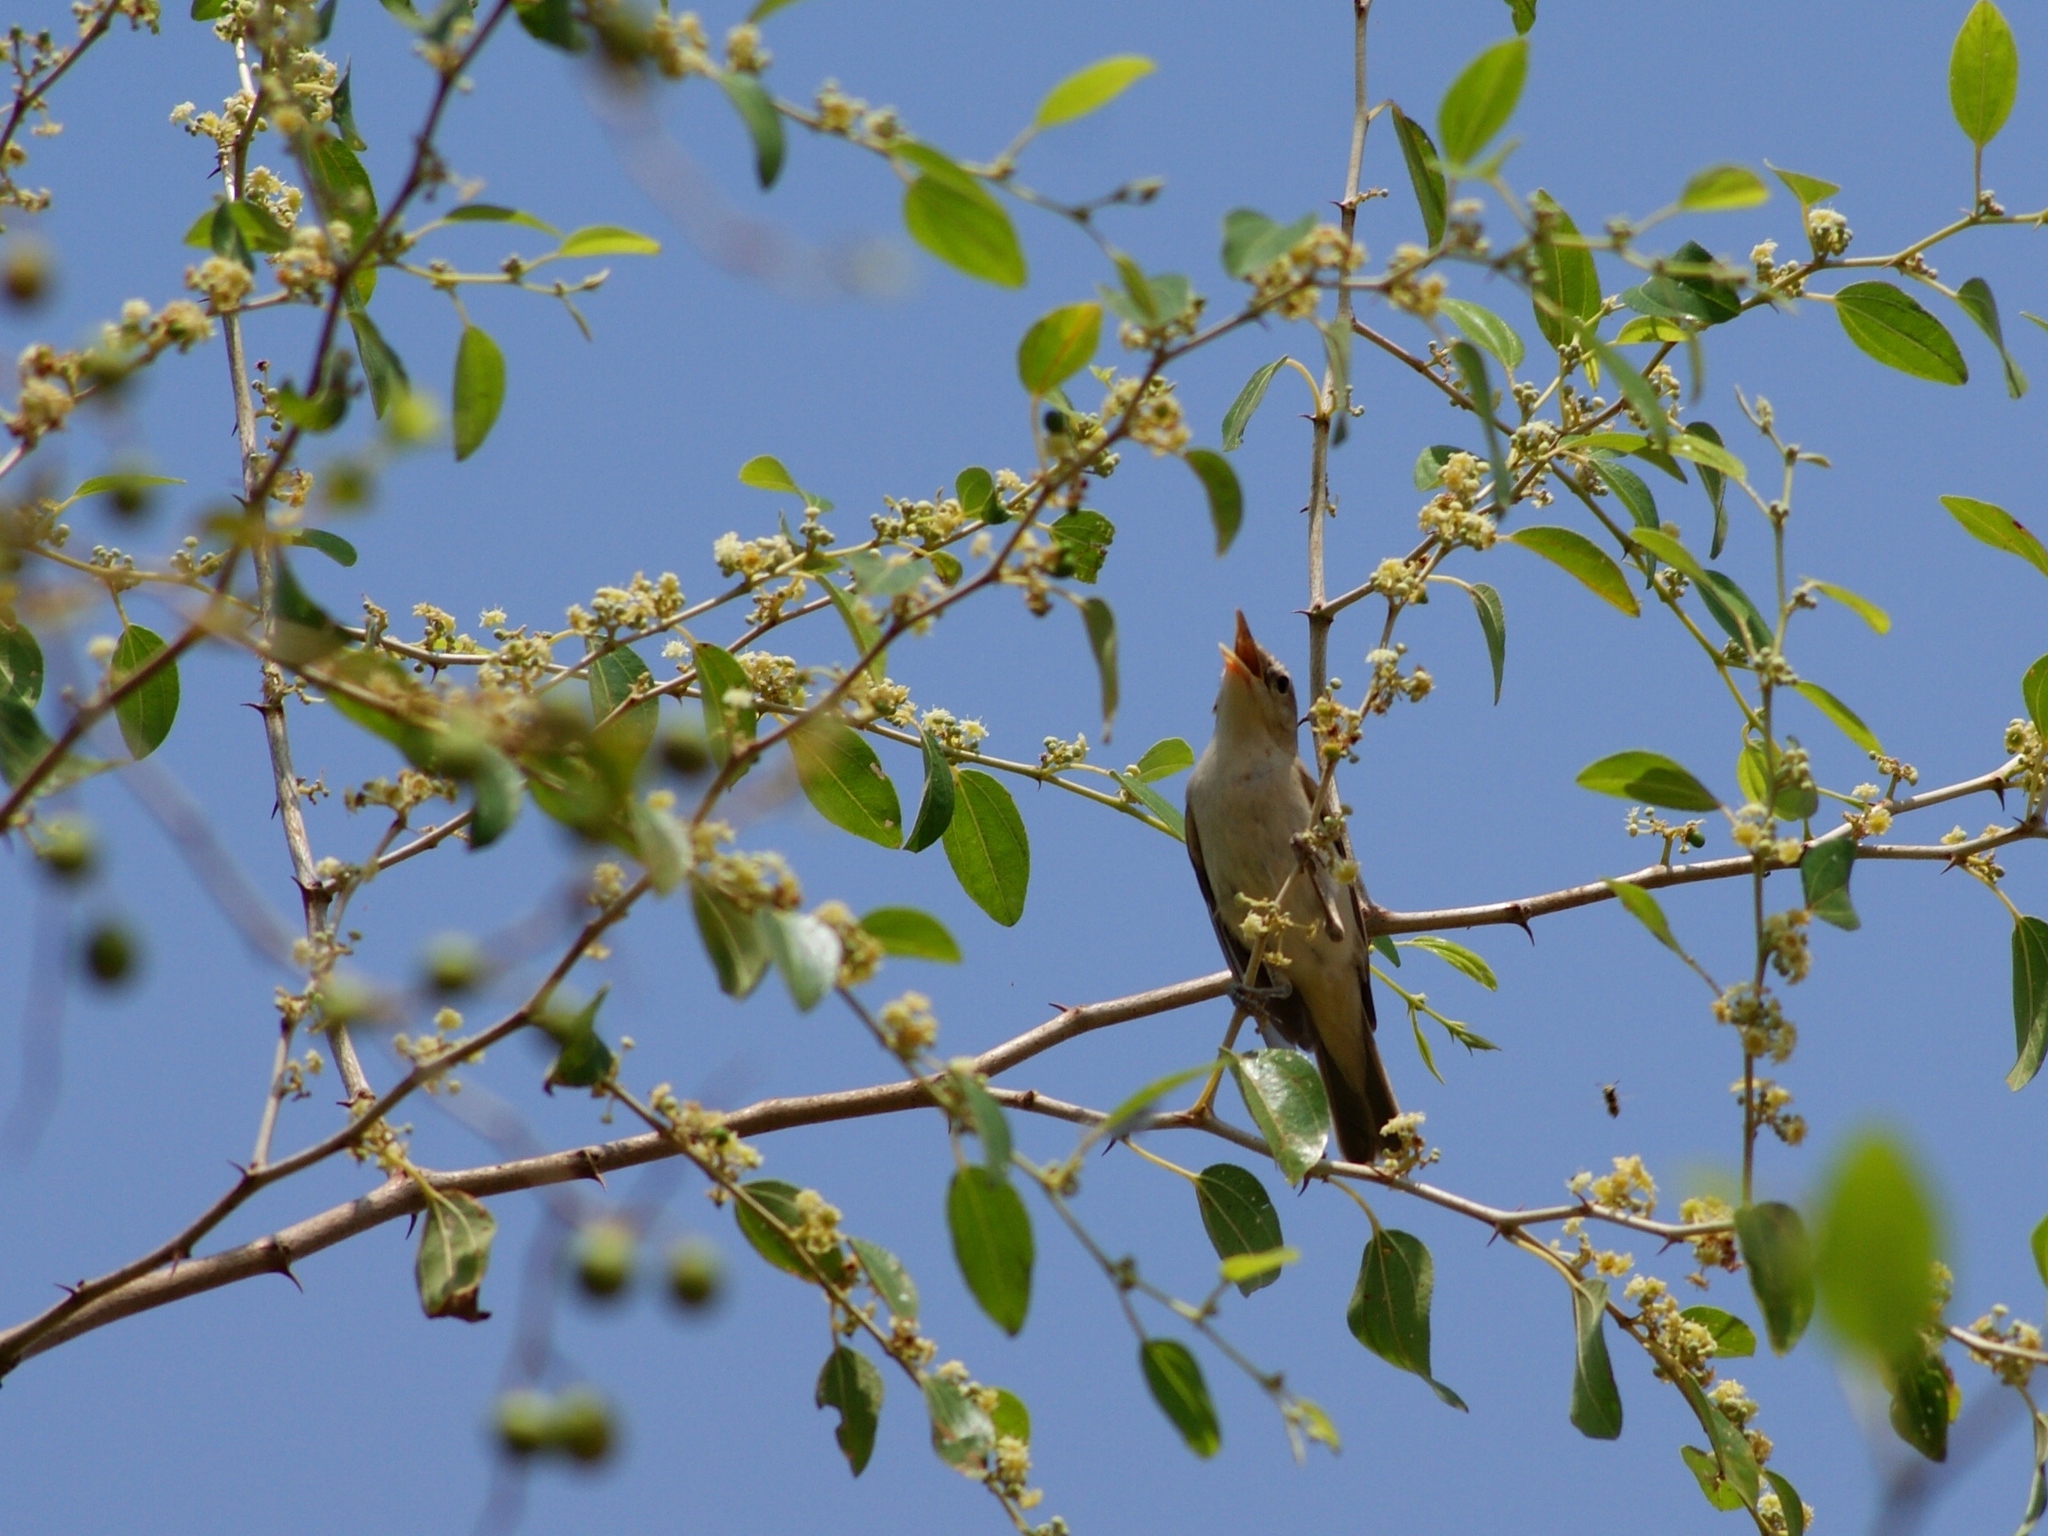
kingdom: Animalia
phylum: Chordata
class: Aves
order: Passeriformes
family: Acrocephalidae
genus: Iduna
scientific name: Iduna pallida
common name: Eastern olivaceous warbler
